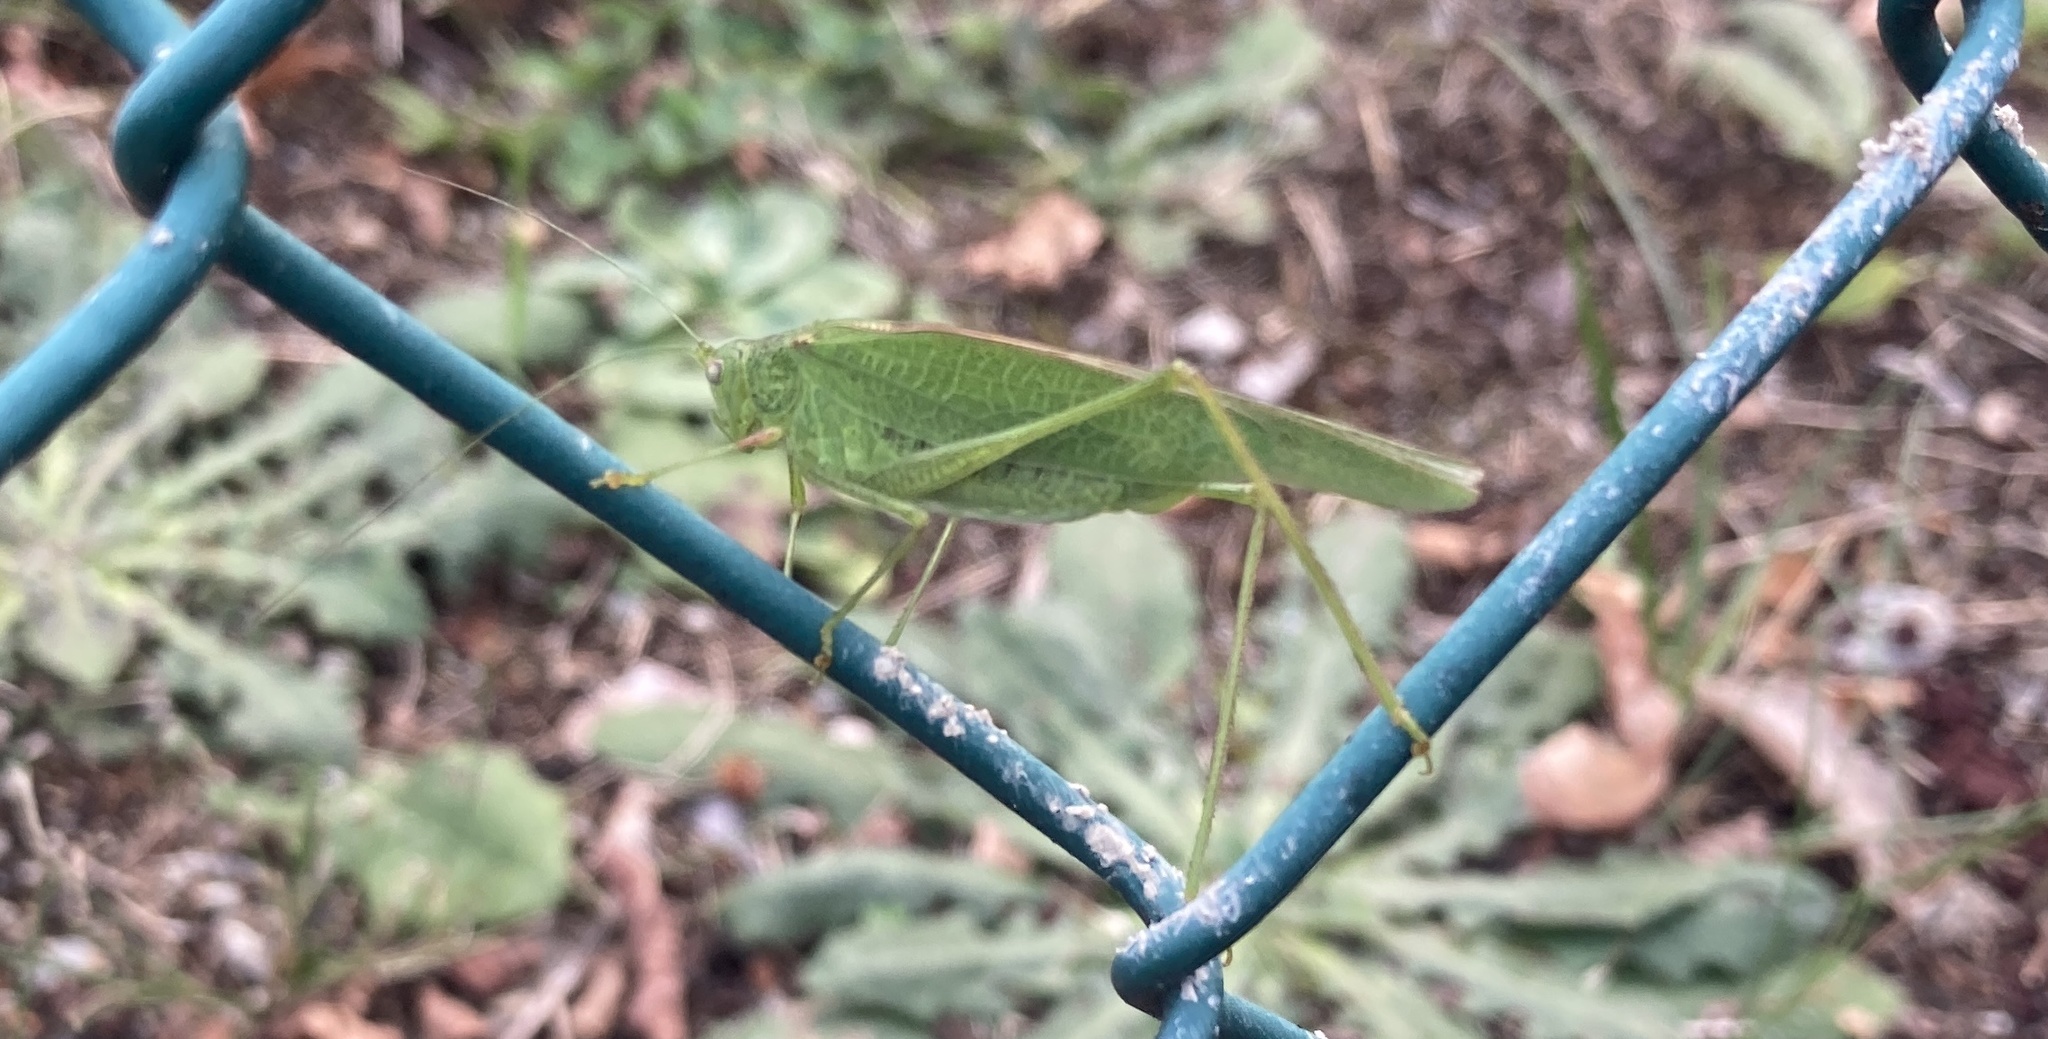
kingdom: Animalia
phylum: Arthropoda
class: Insecta
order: Orthoptera
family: Tettigoniidae
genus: Phaneroptera
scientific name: Phaneroptera nana
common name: Southern sickle bush-cricket
